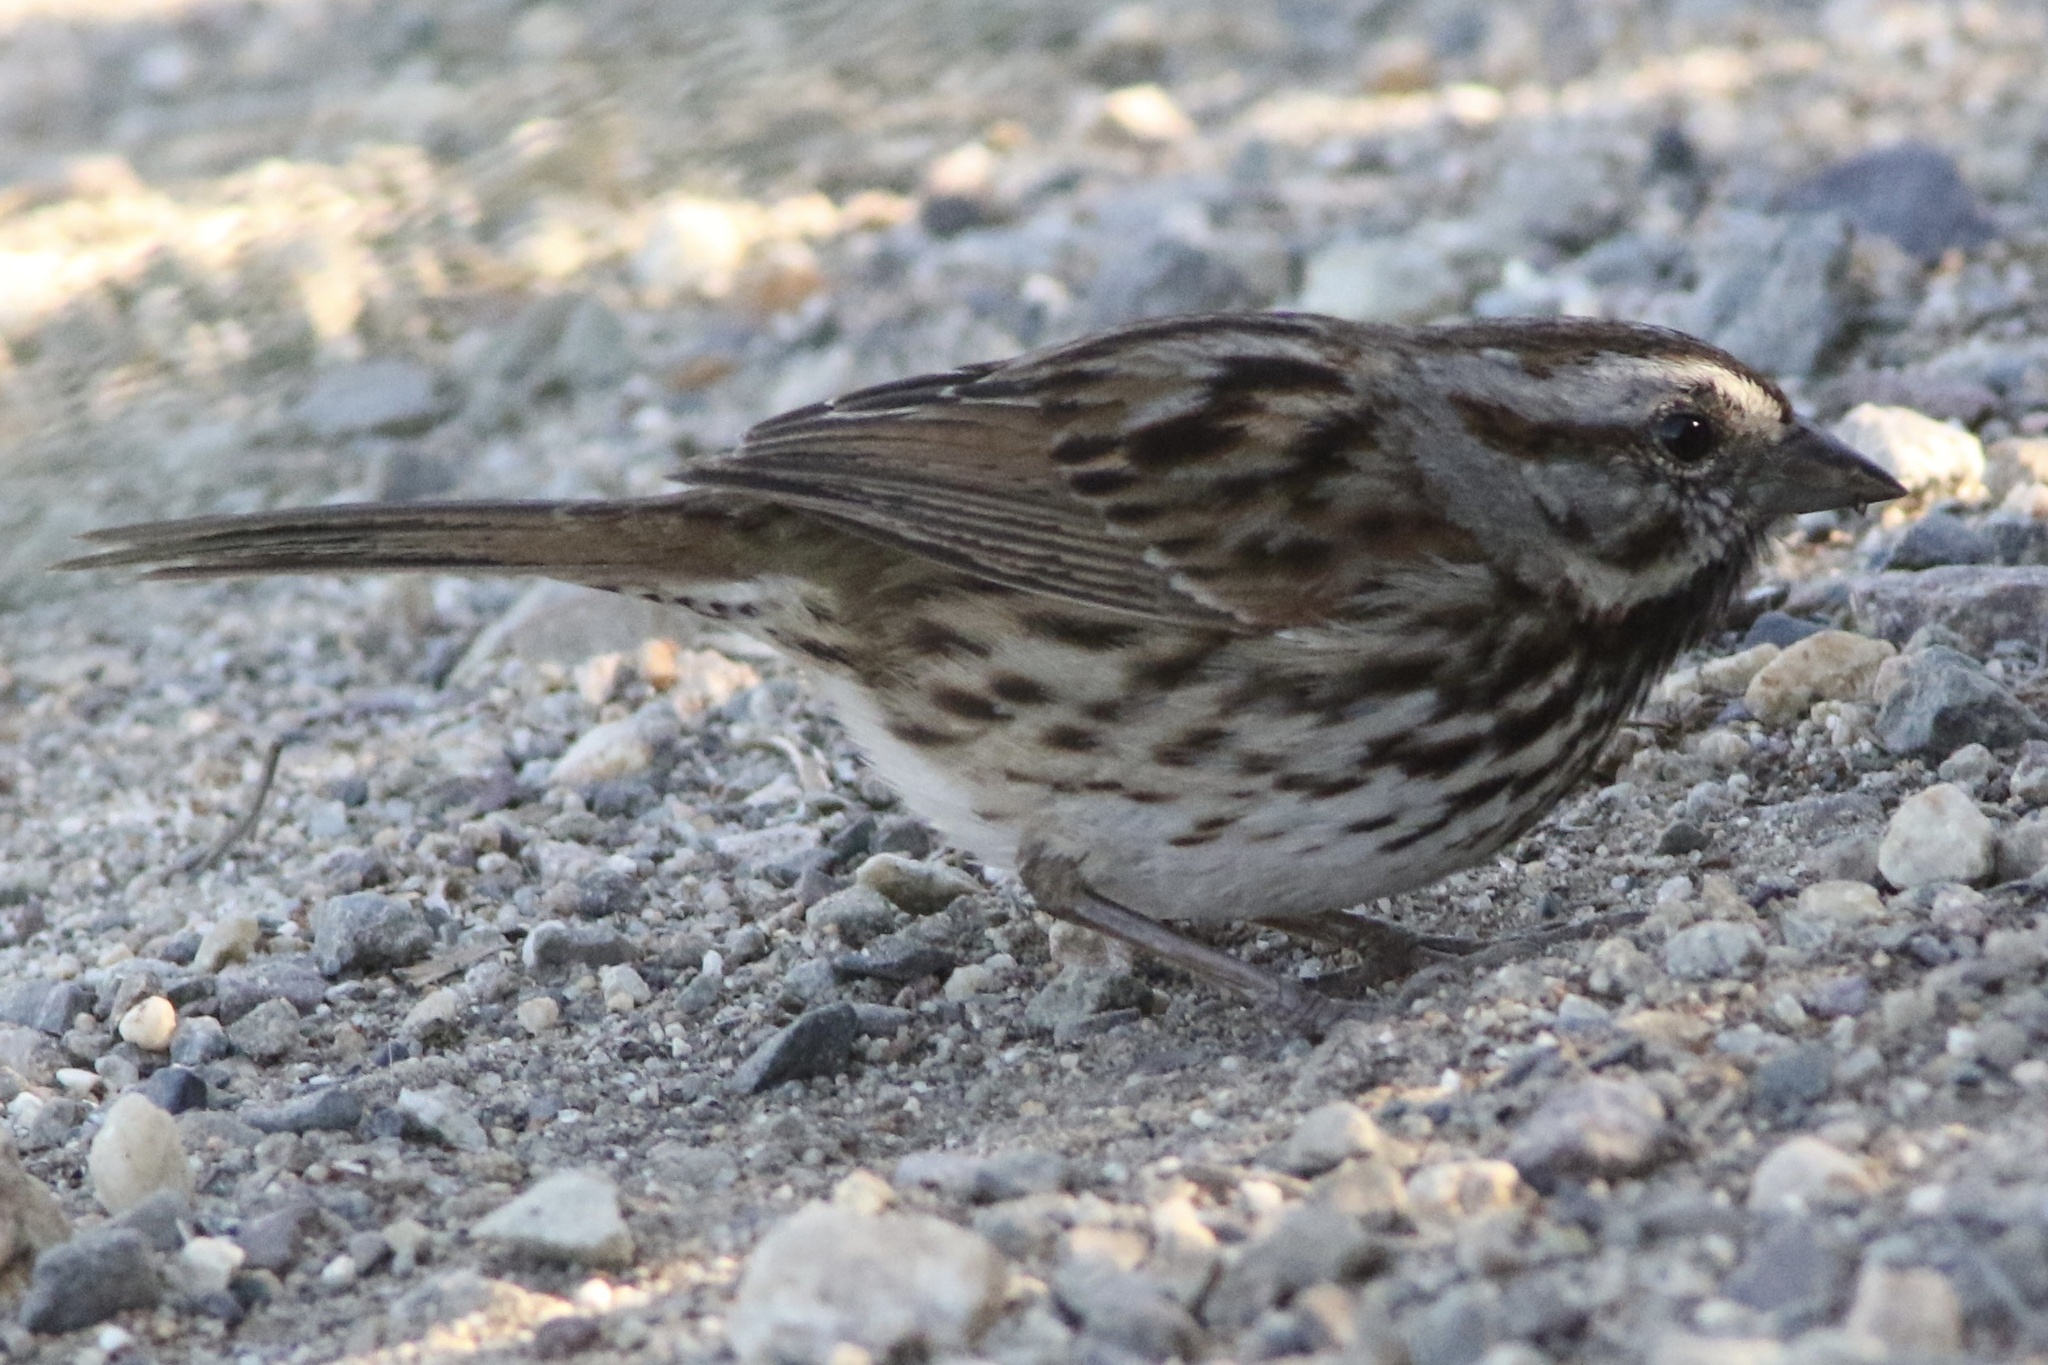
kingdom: Animalia
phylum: Chordata
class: Aves
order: Passeriformes
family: Passerellidae
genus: Melospiza
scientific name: Melospiza melodia
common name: Song sparrow
